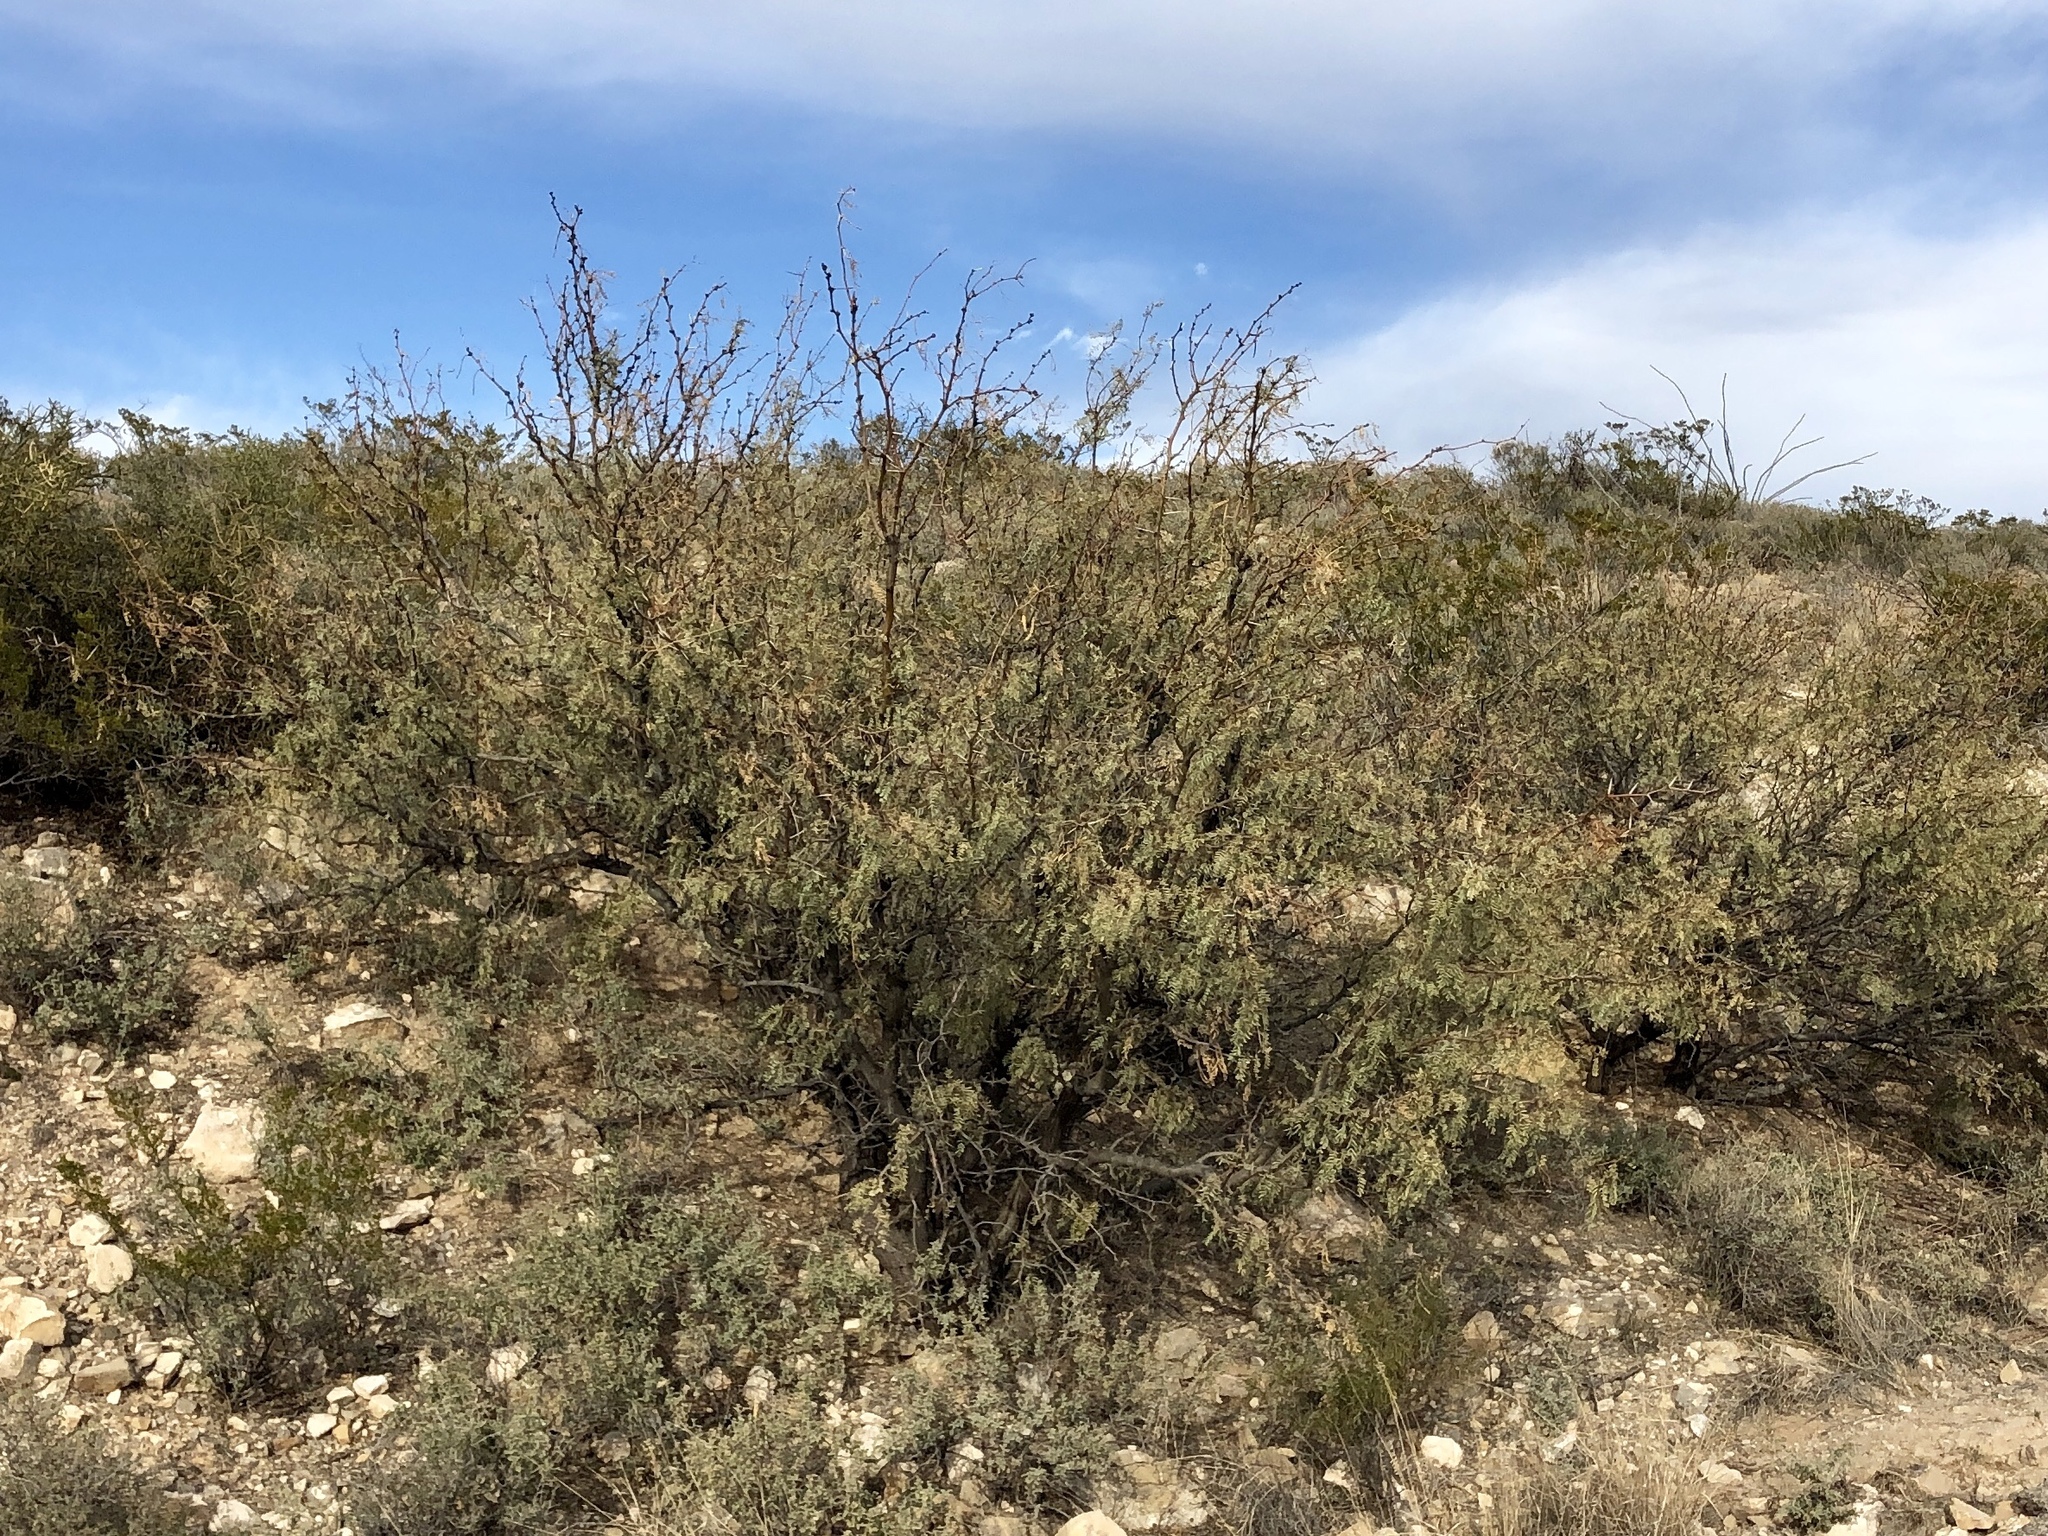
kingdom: Plantae
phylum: Tracheophyta
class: Magnoliopsida
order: Fabales
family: Fabaceae
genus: Prosopis
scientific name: Prosopis glandulosa
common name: Honey mesquite
